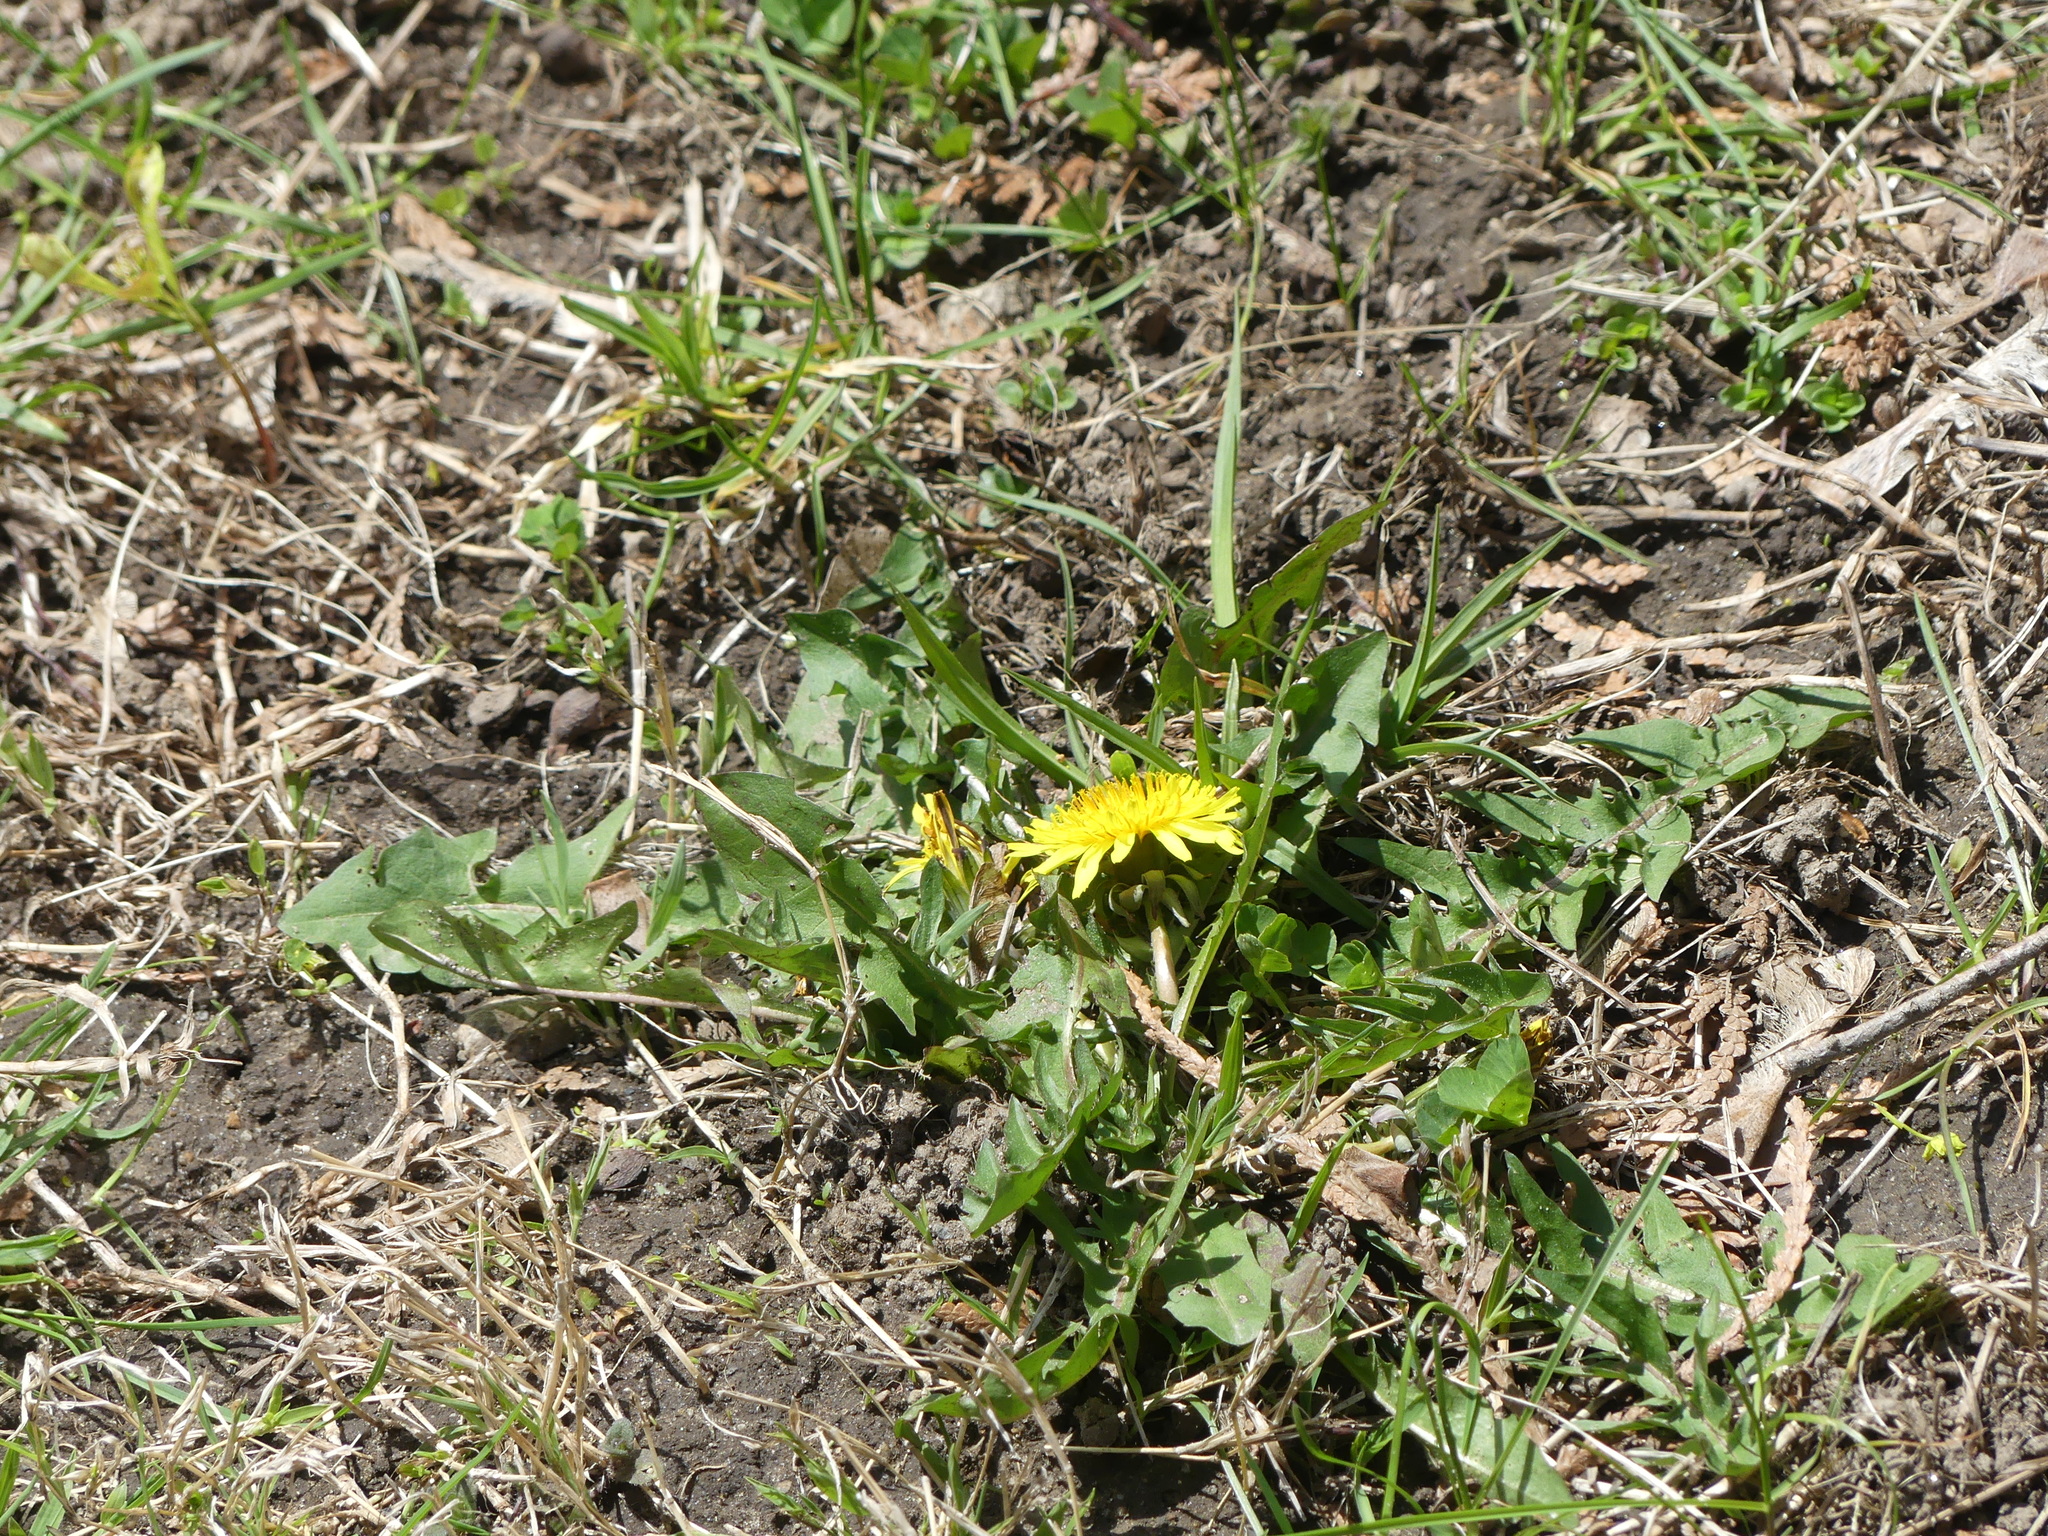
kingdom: Plantae
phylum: Tracheophyta
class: Magnoliopsida
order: Asterales
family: Asteraceae
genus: Taraxacum
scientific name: Taraxacum officinale
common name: Common dandelion
